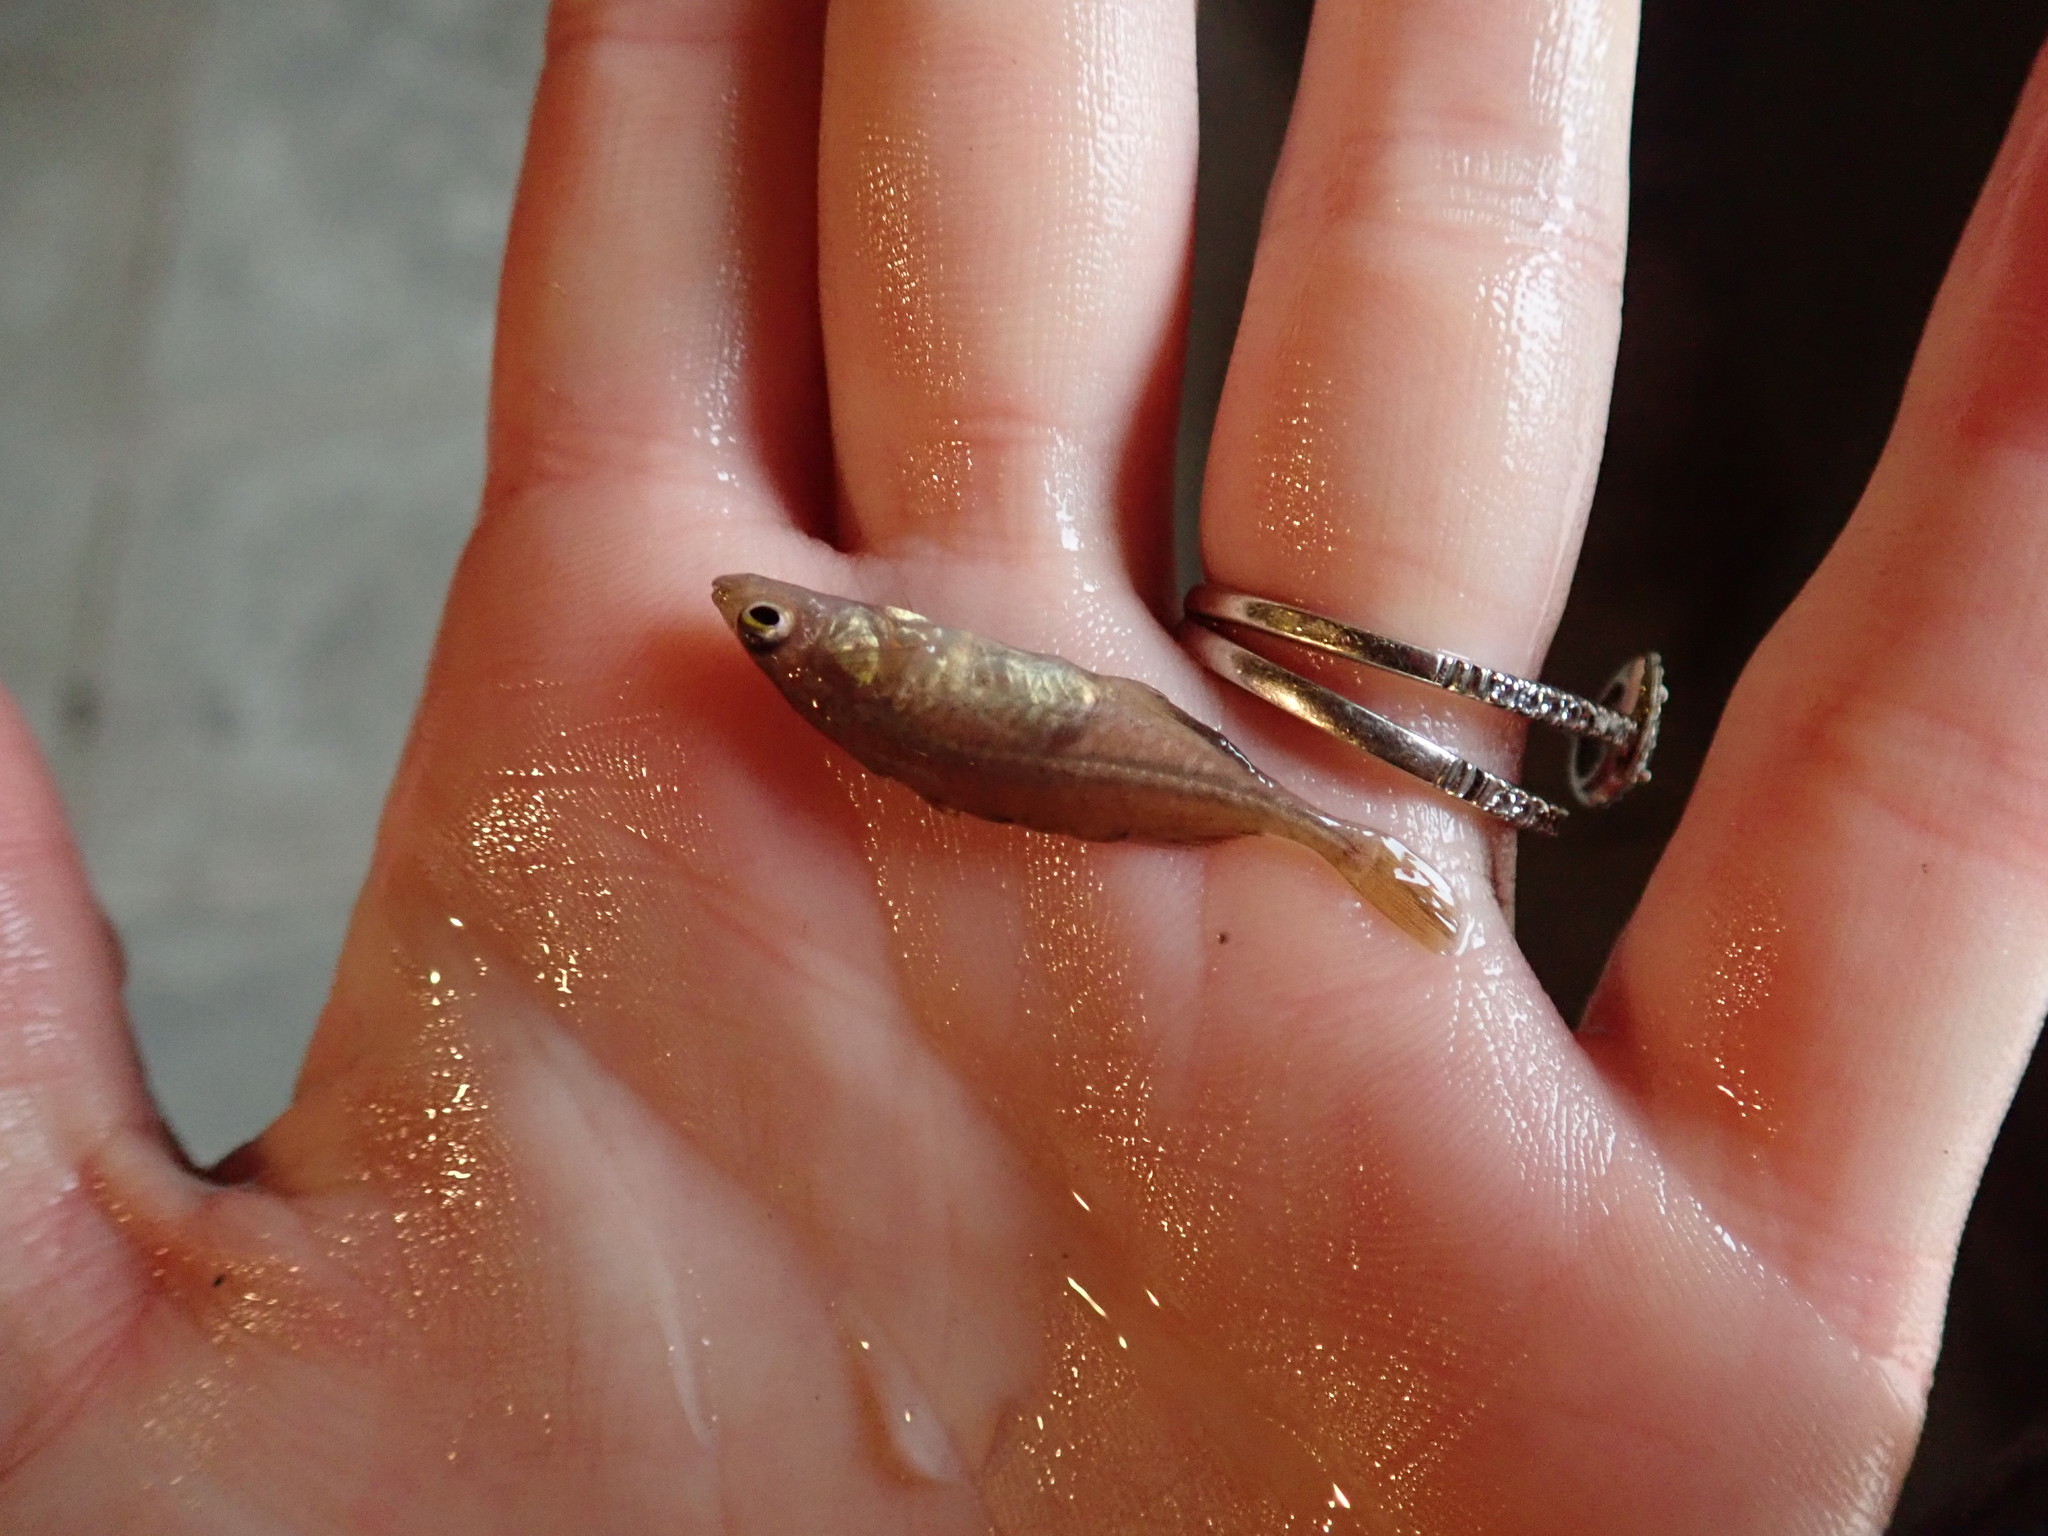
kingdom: Animalia
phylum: Chordata
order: Gasterosteiformes
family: Gasterosteidae
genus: Culaea
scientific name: Culaea inconstans
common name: Brook stickleback
